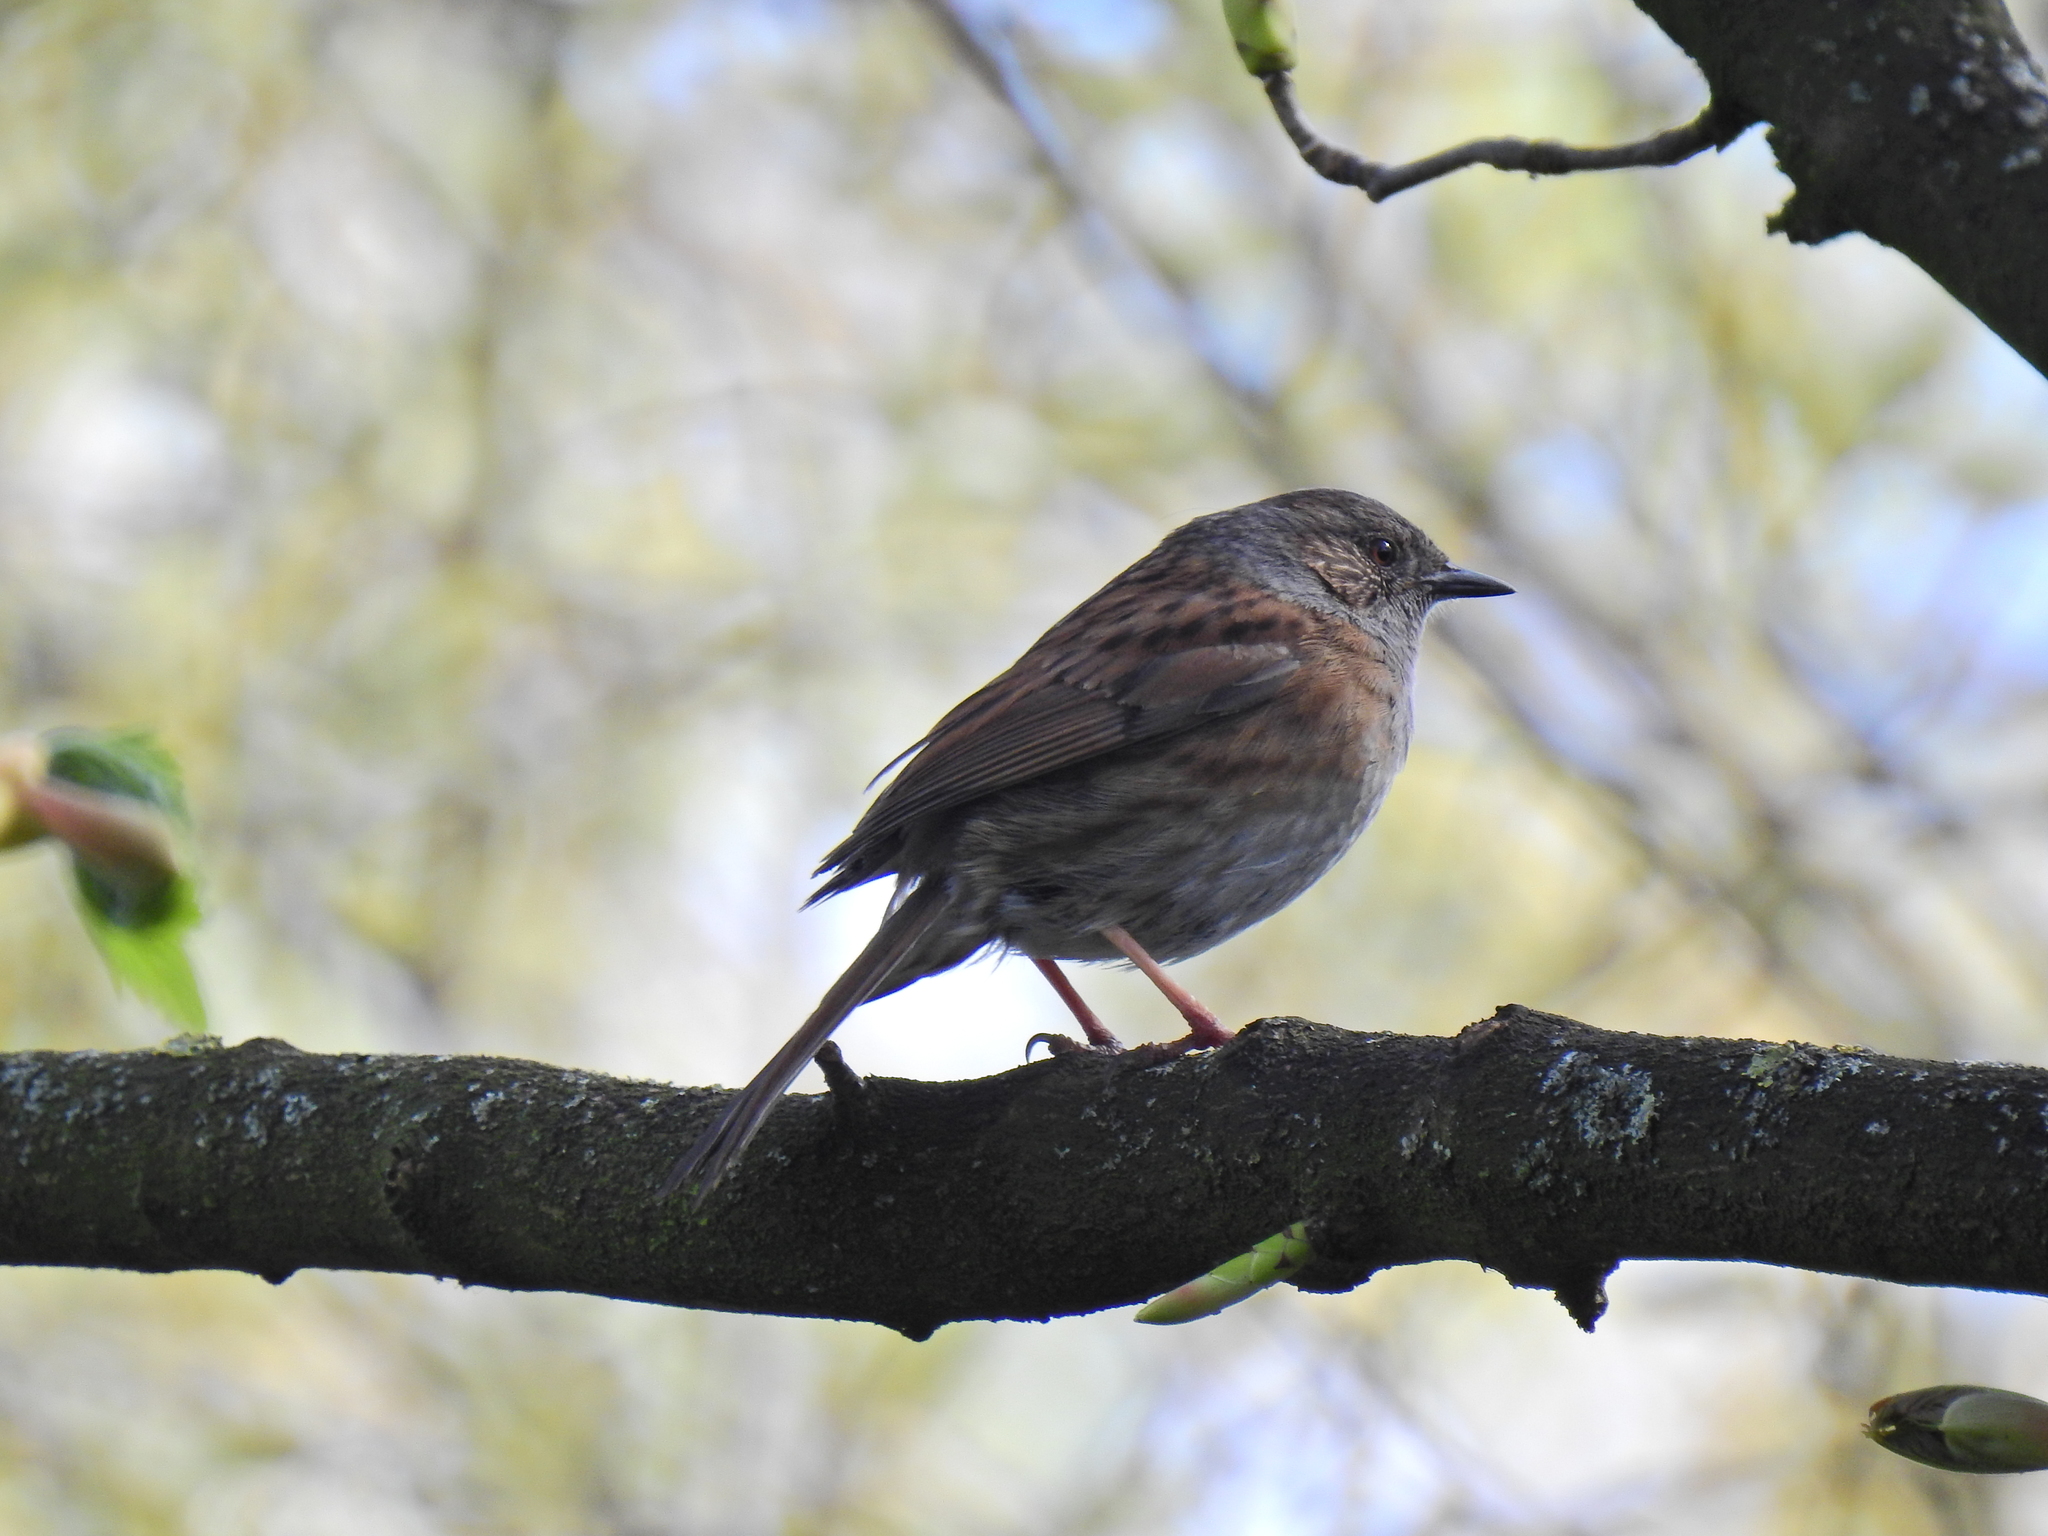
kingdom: Animalia
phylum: Chordata
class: Aves
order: Passeriformes
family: Prunellidae
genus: Prunella
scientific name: Prunella modularis
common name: Dunnock
